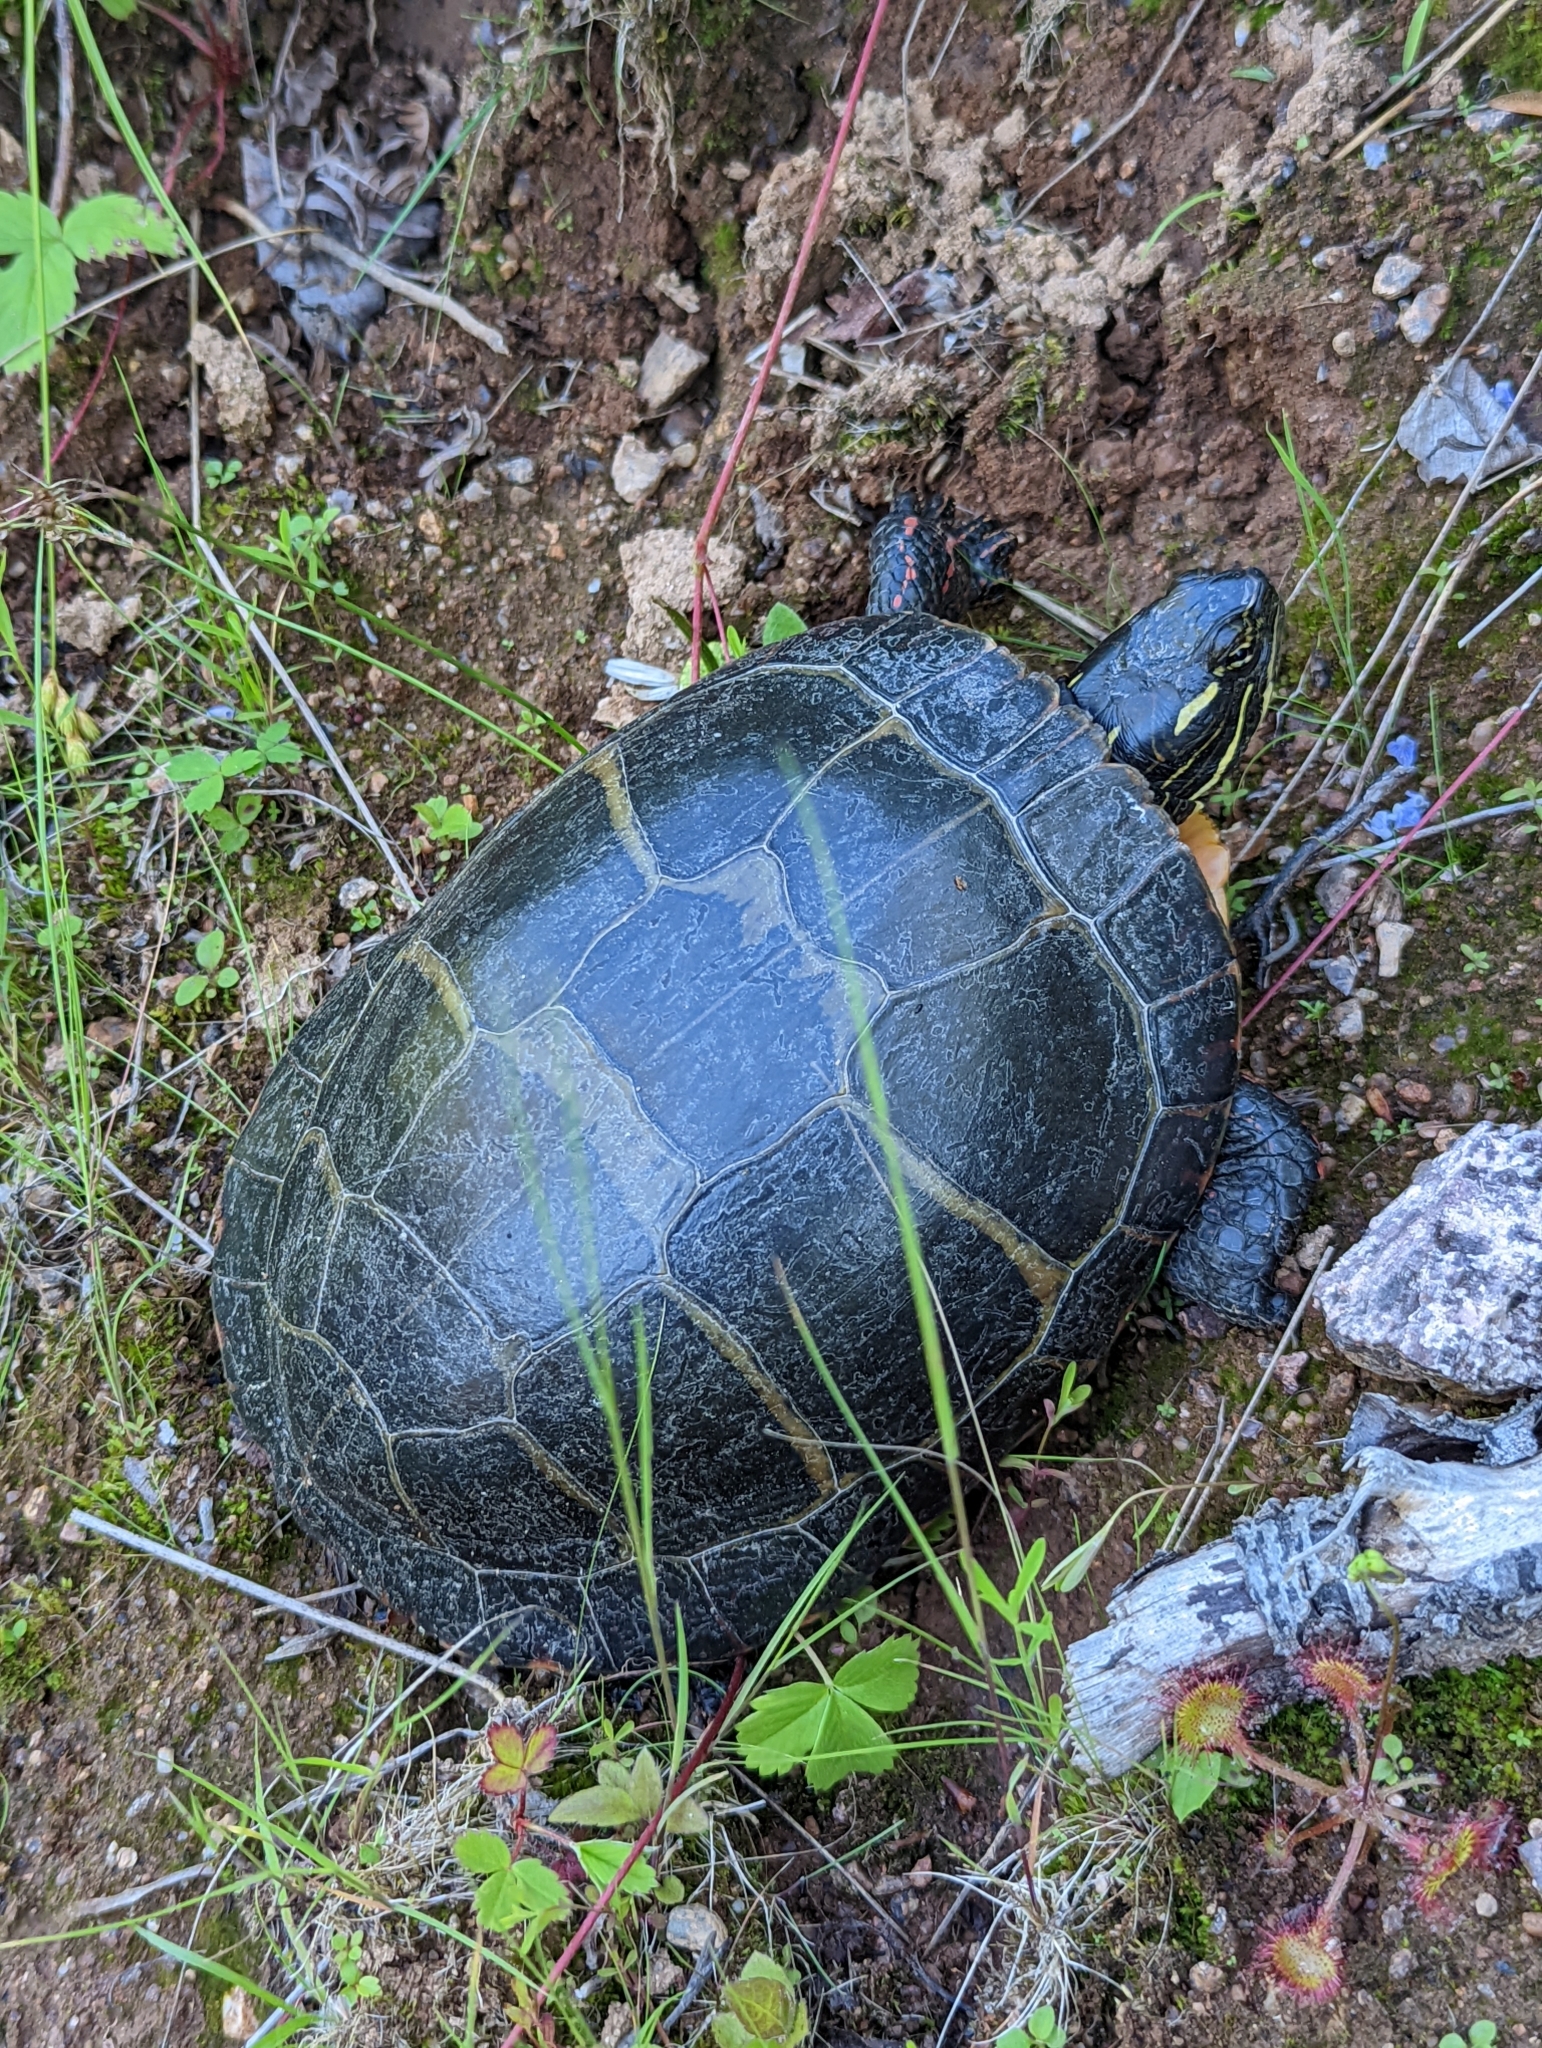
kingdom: Animalia
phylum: Chordata
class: Testudines
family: Emydidae
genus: Chrysemys
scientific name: Chrysemys picta
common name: Painted turtle
